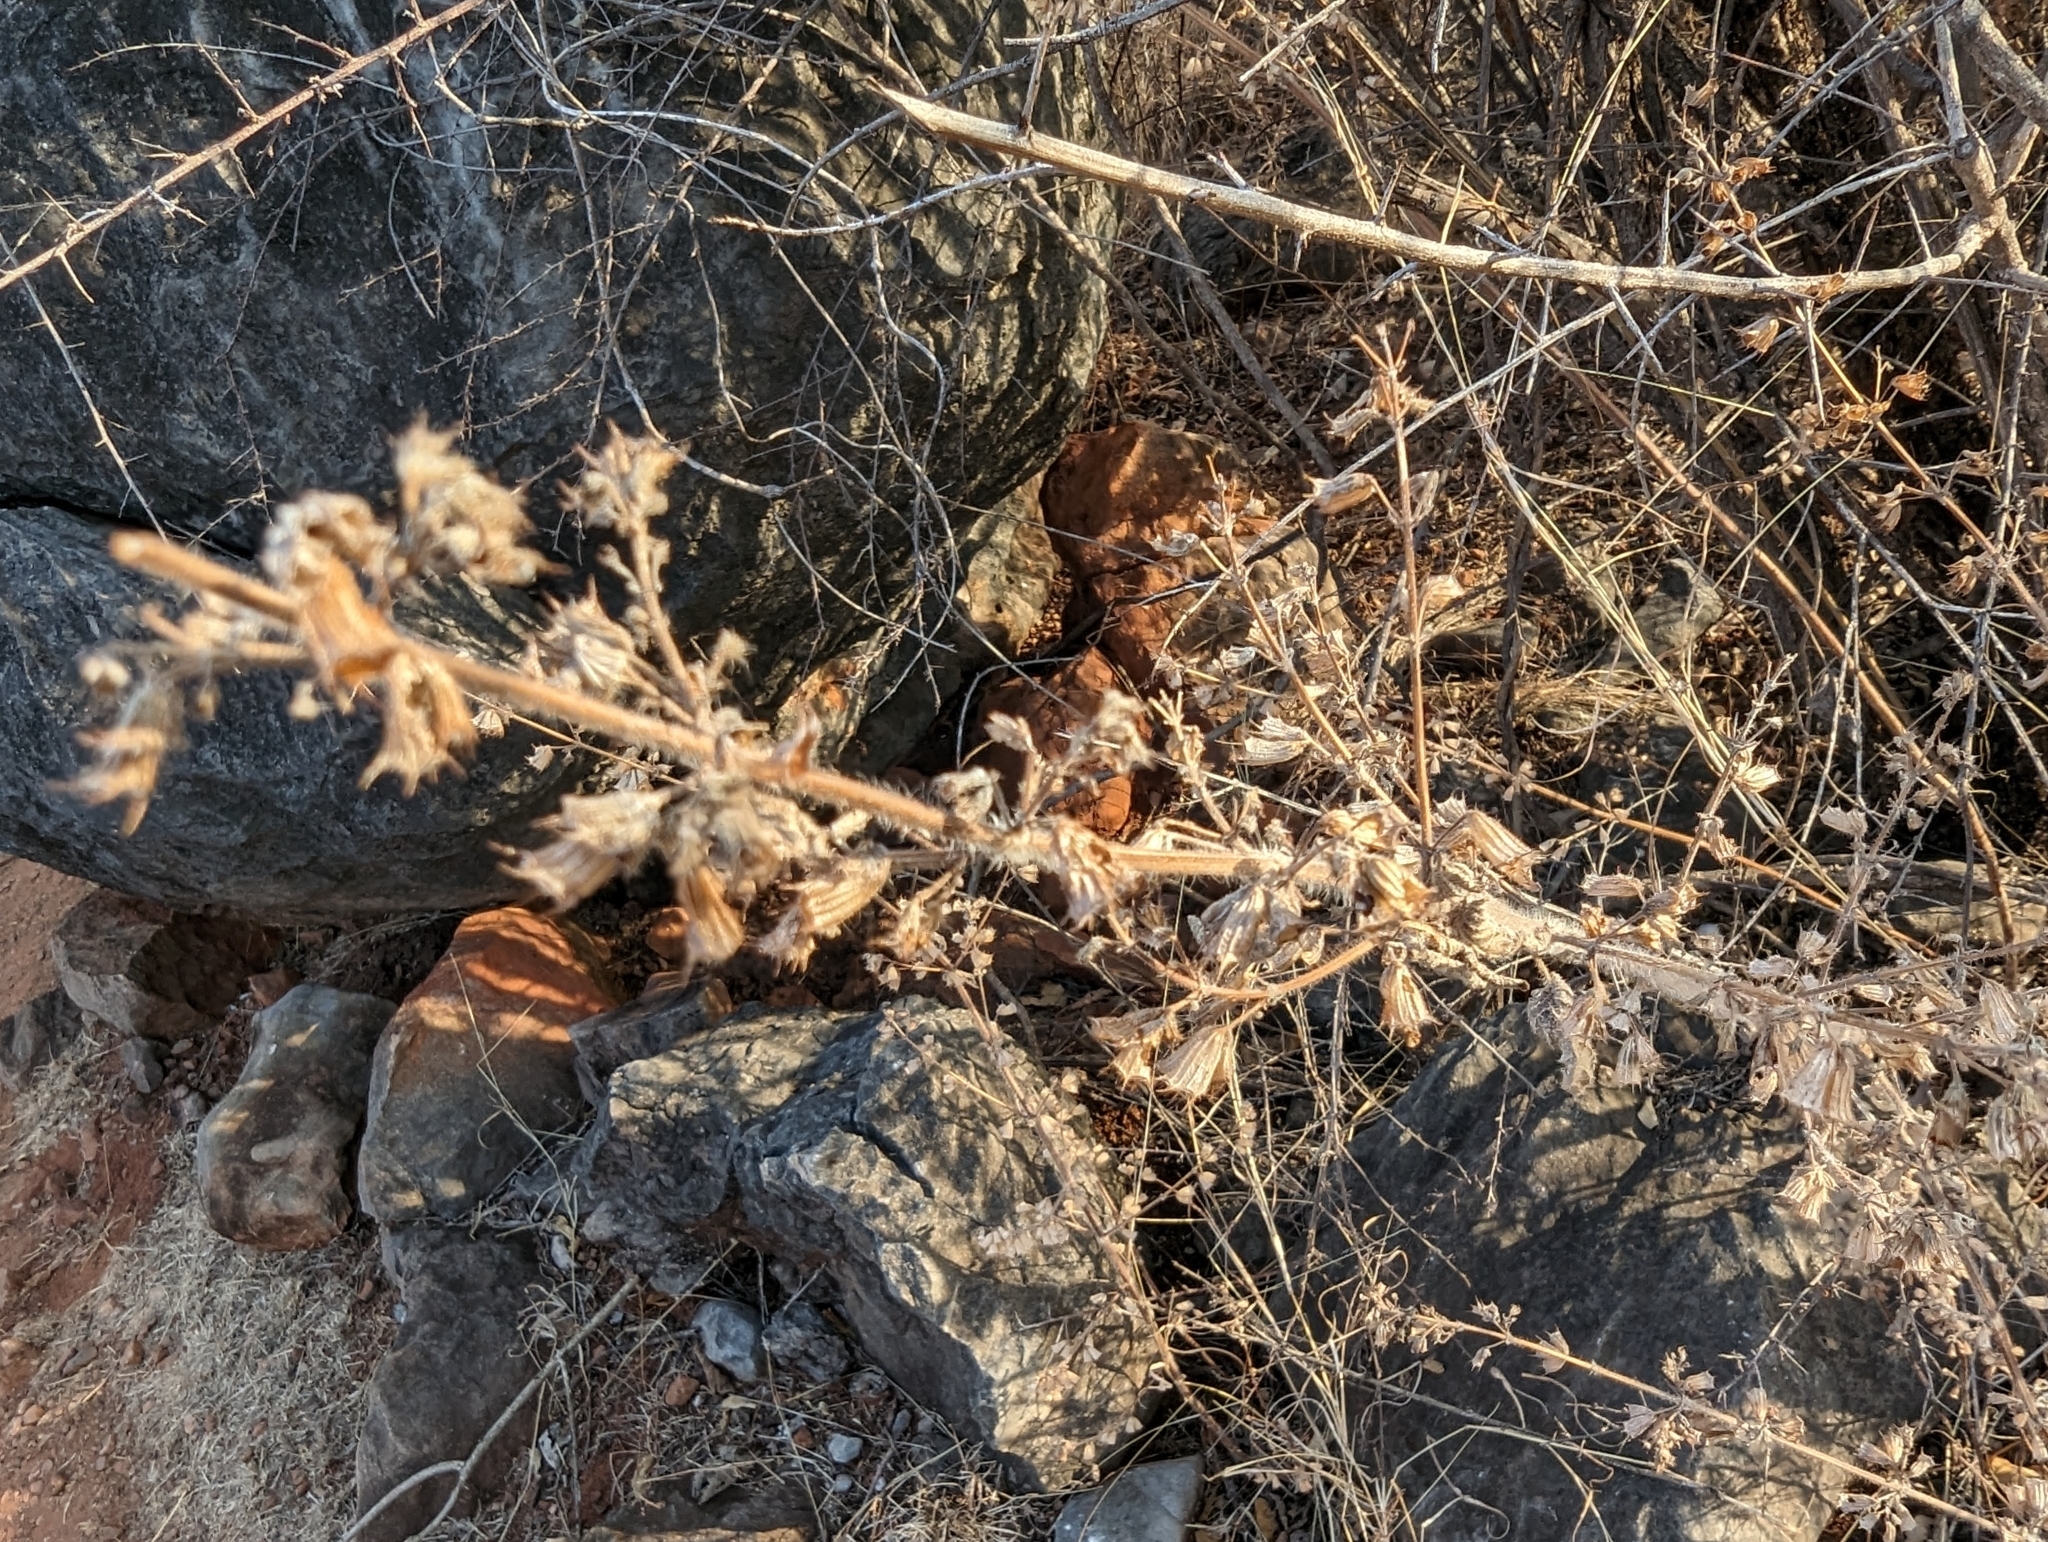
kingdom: Plantae
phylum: Tracheophyta
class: Magnoliopsida
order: Lamiales
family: Lamiaceae
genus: Mesosphaerum
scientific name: Mesosphaerum suaveolens
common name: Pignut
